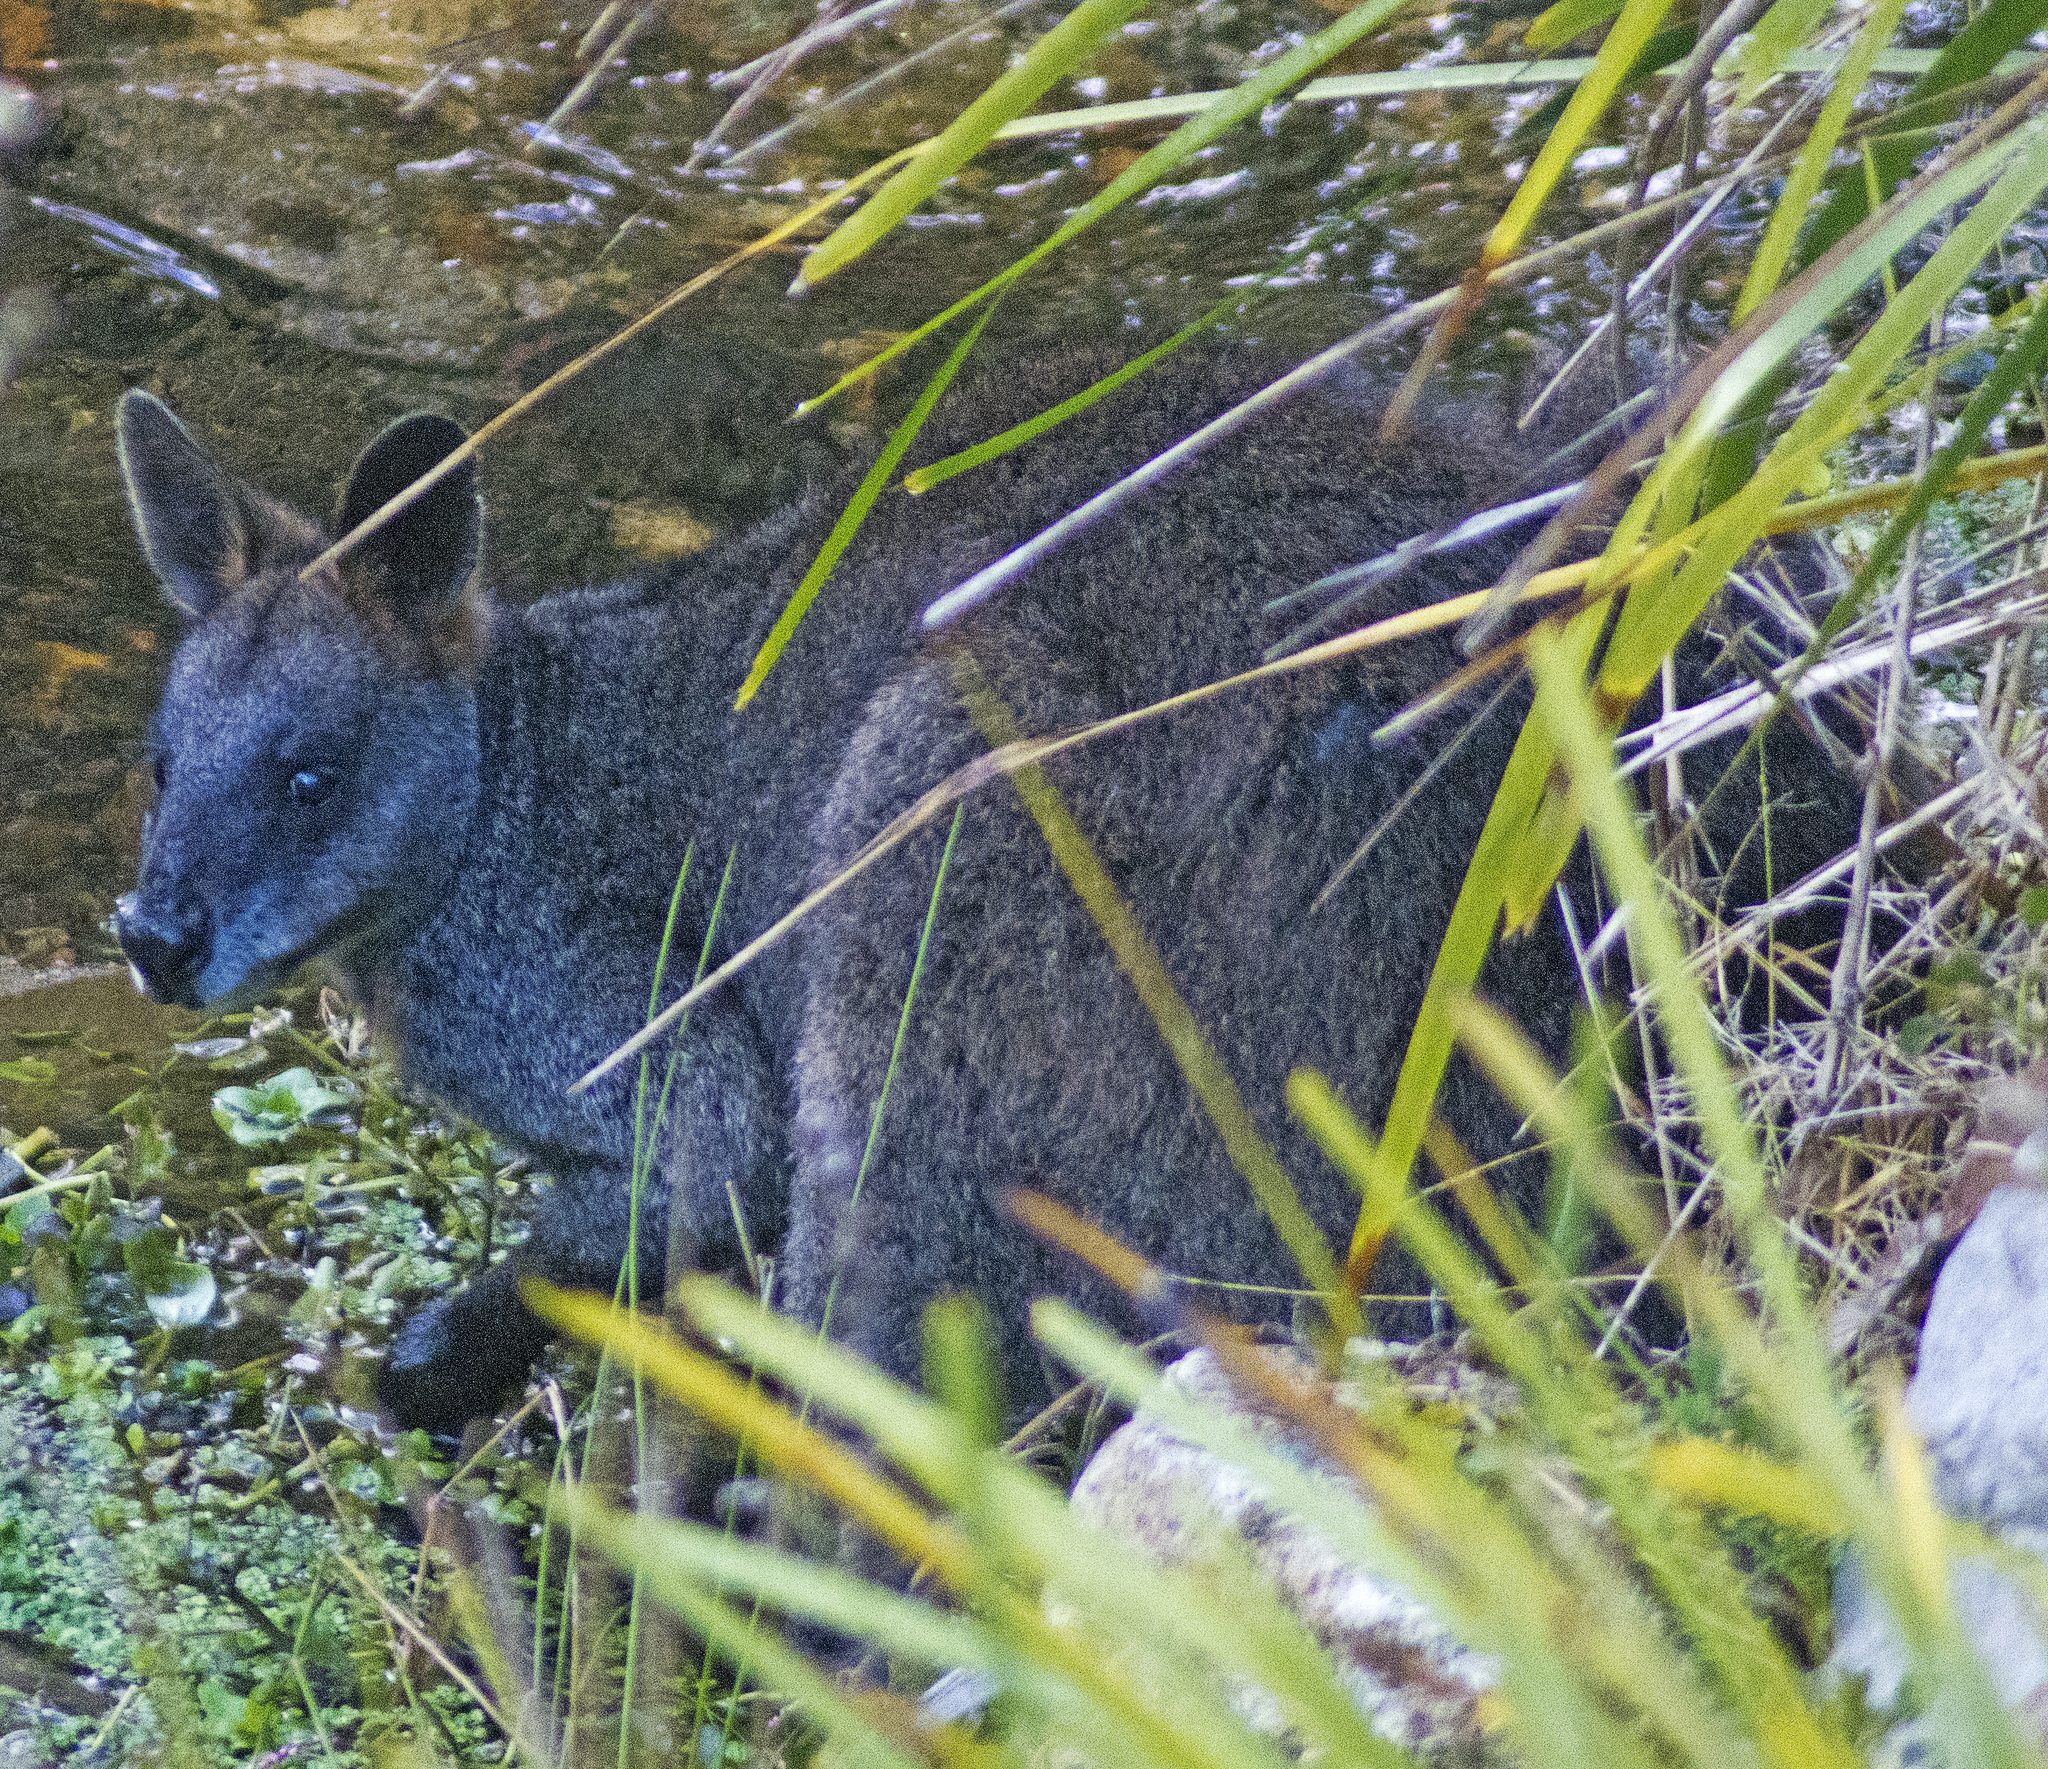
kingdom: Animalia
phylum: Chordata
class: Mammalia
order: Diprotodontia
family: Macropodidae
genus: Wallabia
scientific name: Wallabia bicolor
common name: Swamp wallaby
